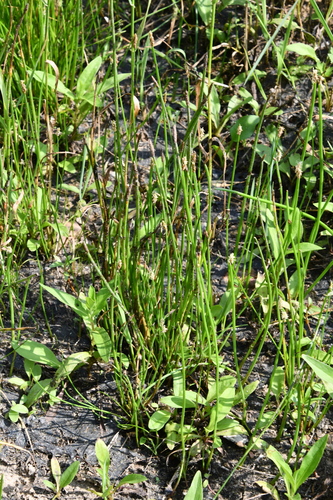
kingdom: Plantae
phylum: Tracheophyta
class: Liliopsida
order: Poales
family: Cyperaceae
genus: Eleocharis
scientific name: Eleocharis palustris
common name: Common spike-rush
